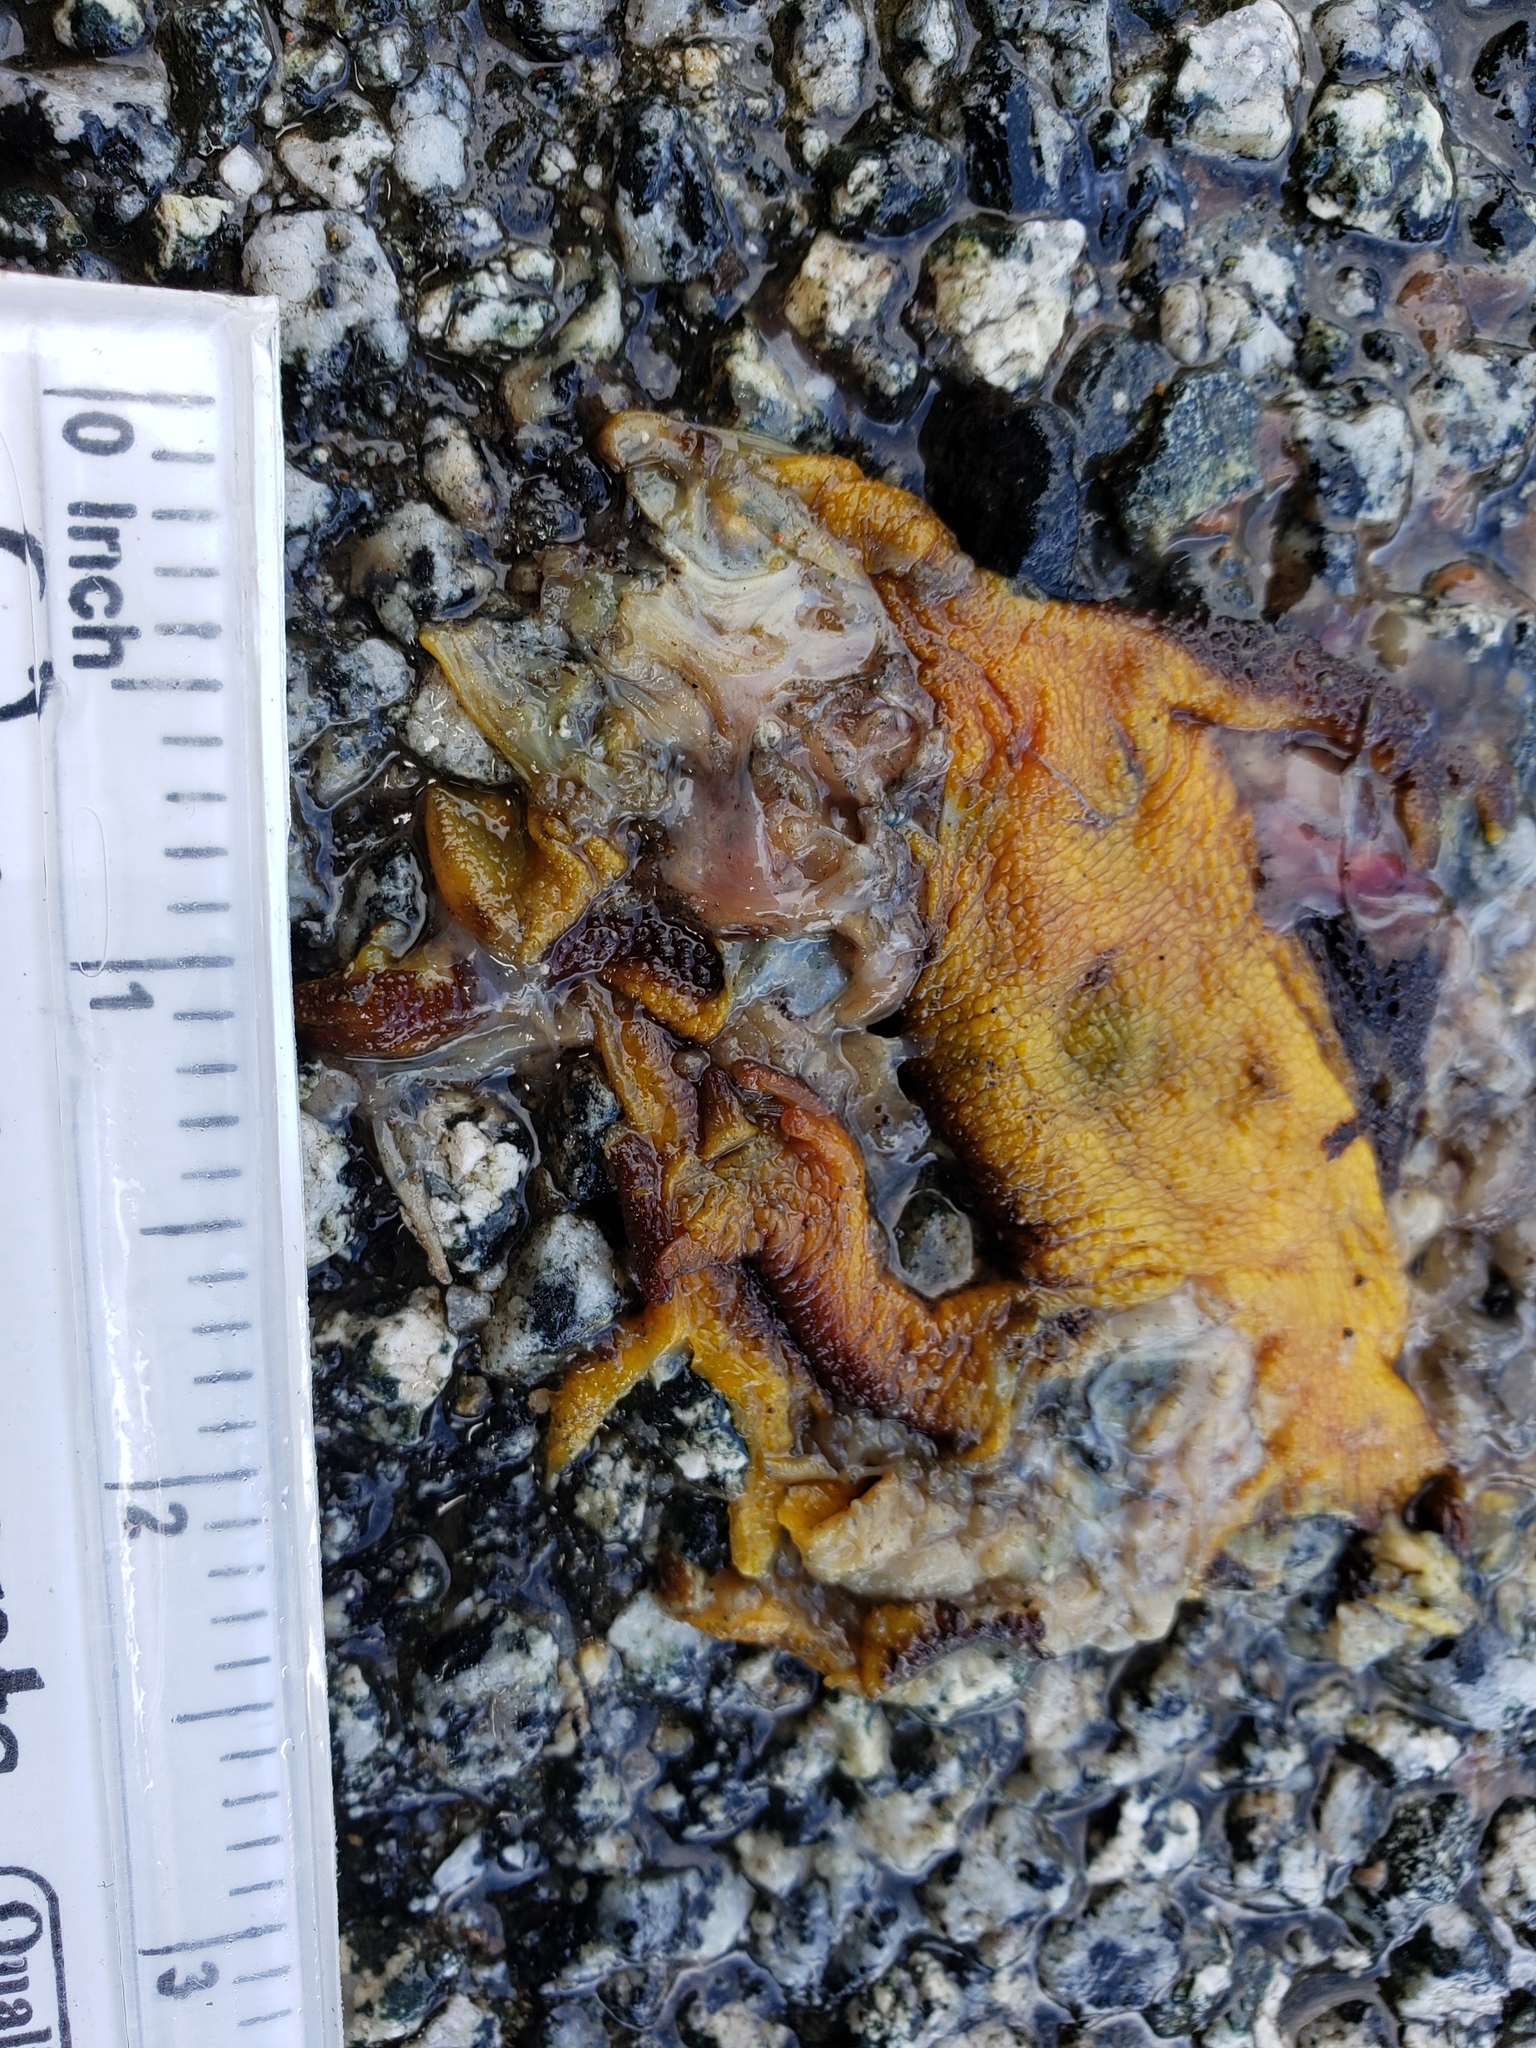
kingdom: Animalia
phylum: Chordata
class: Amphibia
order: Caudata
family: Salamandridae
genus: Taricha
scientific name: Taricha
